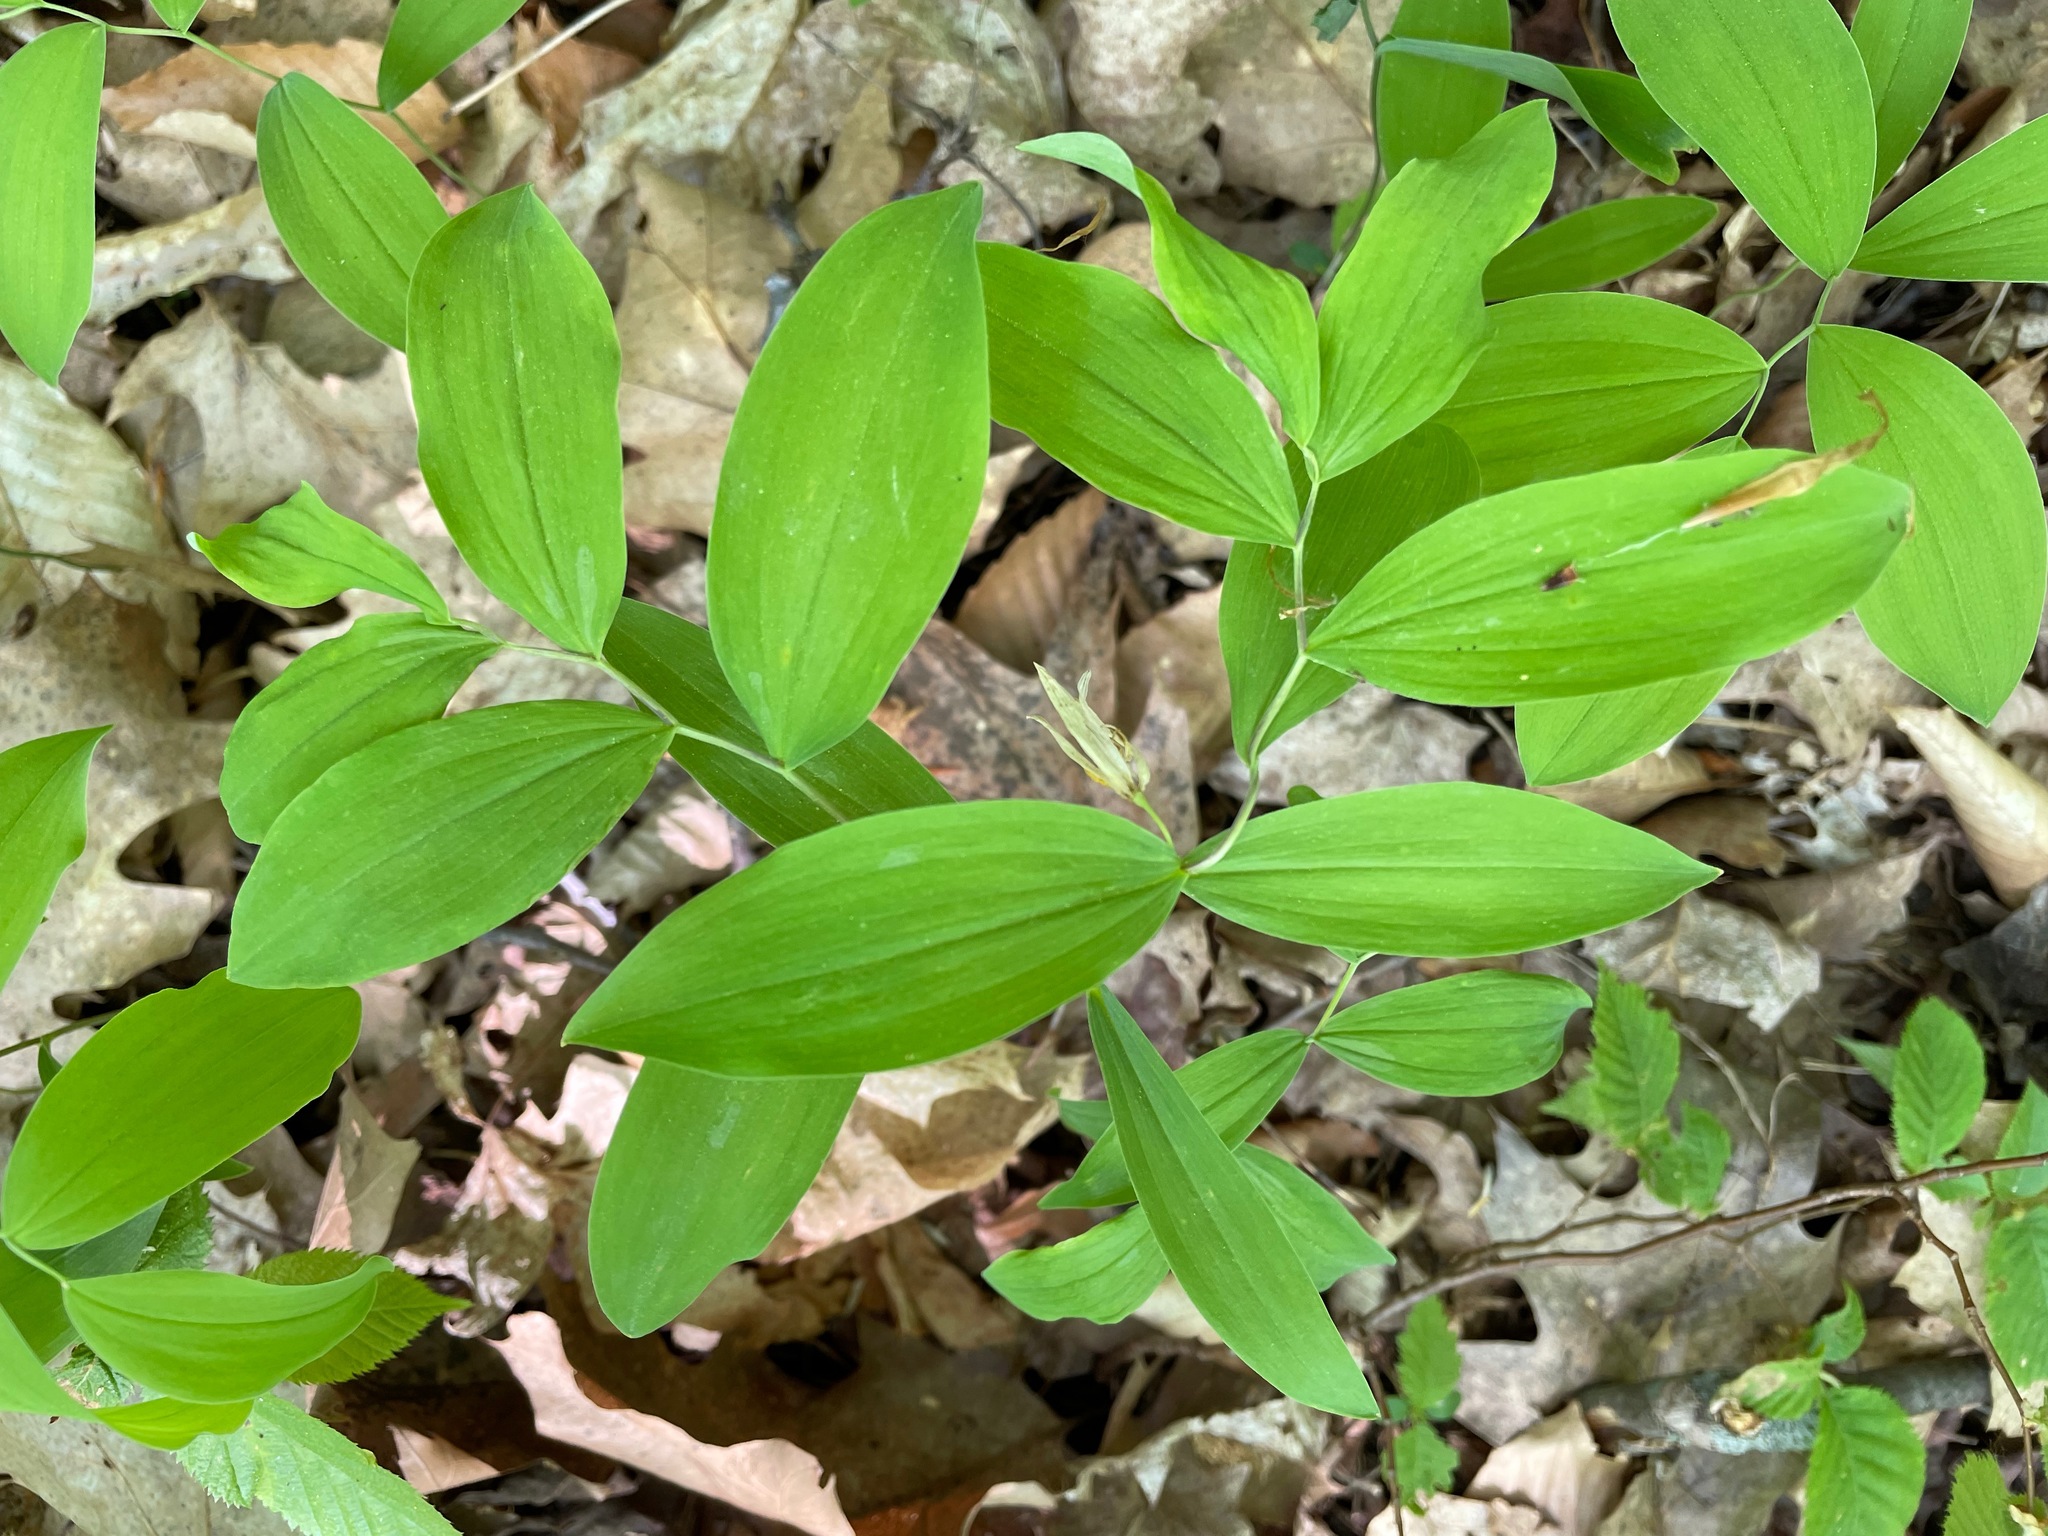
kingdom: Plantae
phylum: Tracheophyta
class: Liliopsida
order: Liliales
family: Colchicaceae
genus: Uvularia
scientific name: Uvularia sessilifolia
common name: Straw-lily
